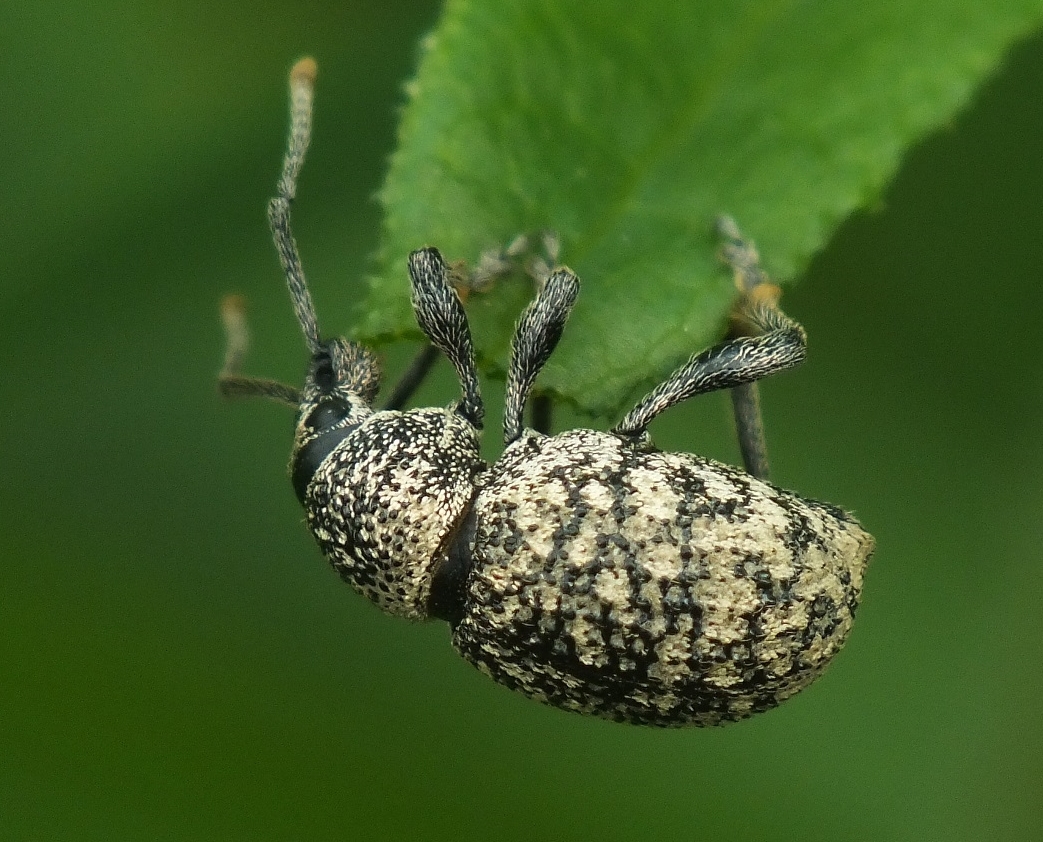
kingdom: Animalia
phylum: Arthropoda
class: Insecta
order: Coleoptera
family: Curculionidae
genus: Otiorhynchus
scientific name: Otiorhynchus chrysostictus
